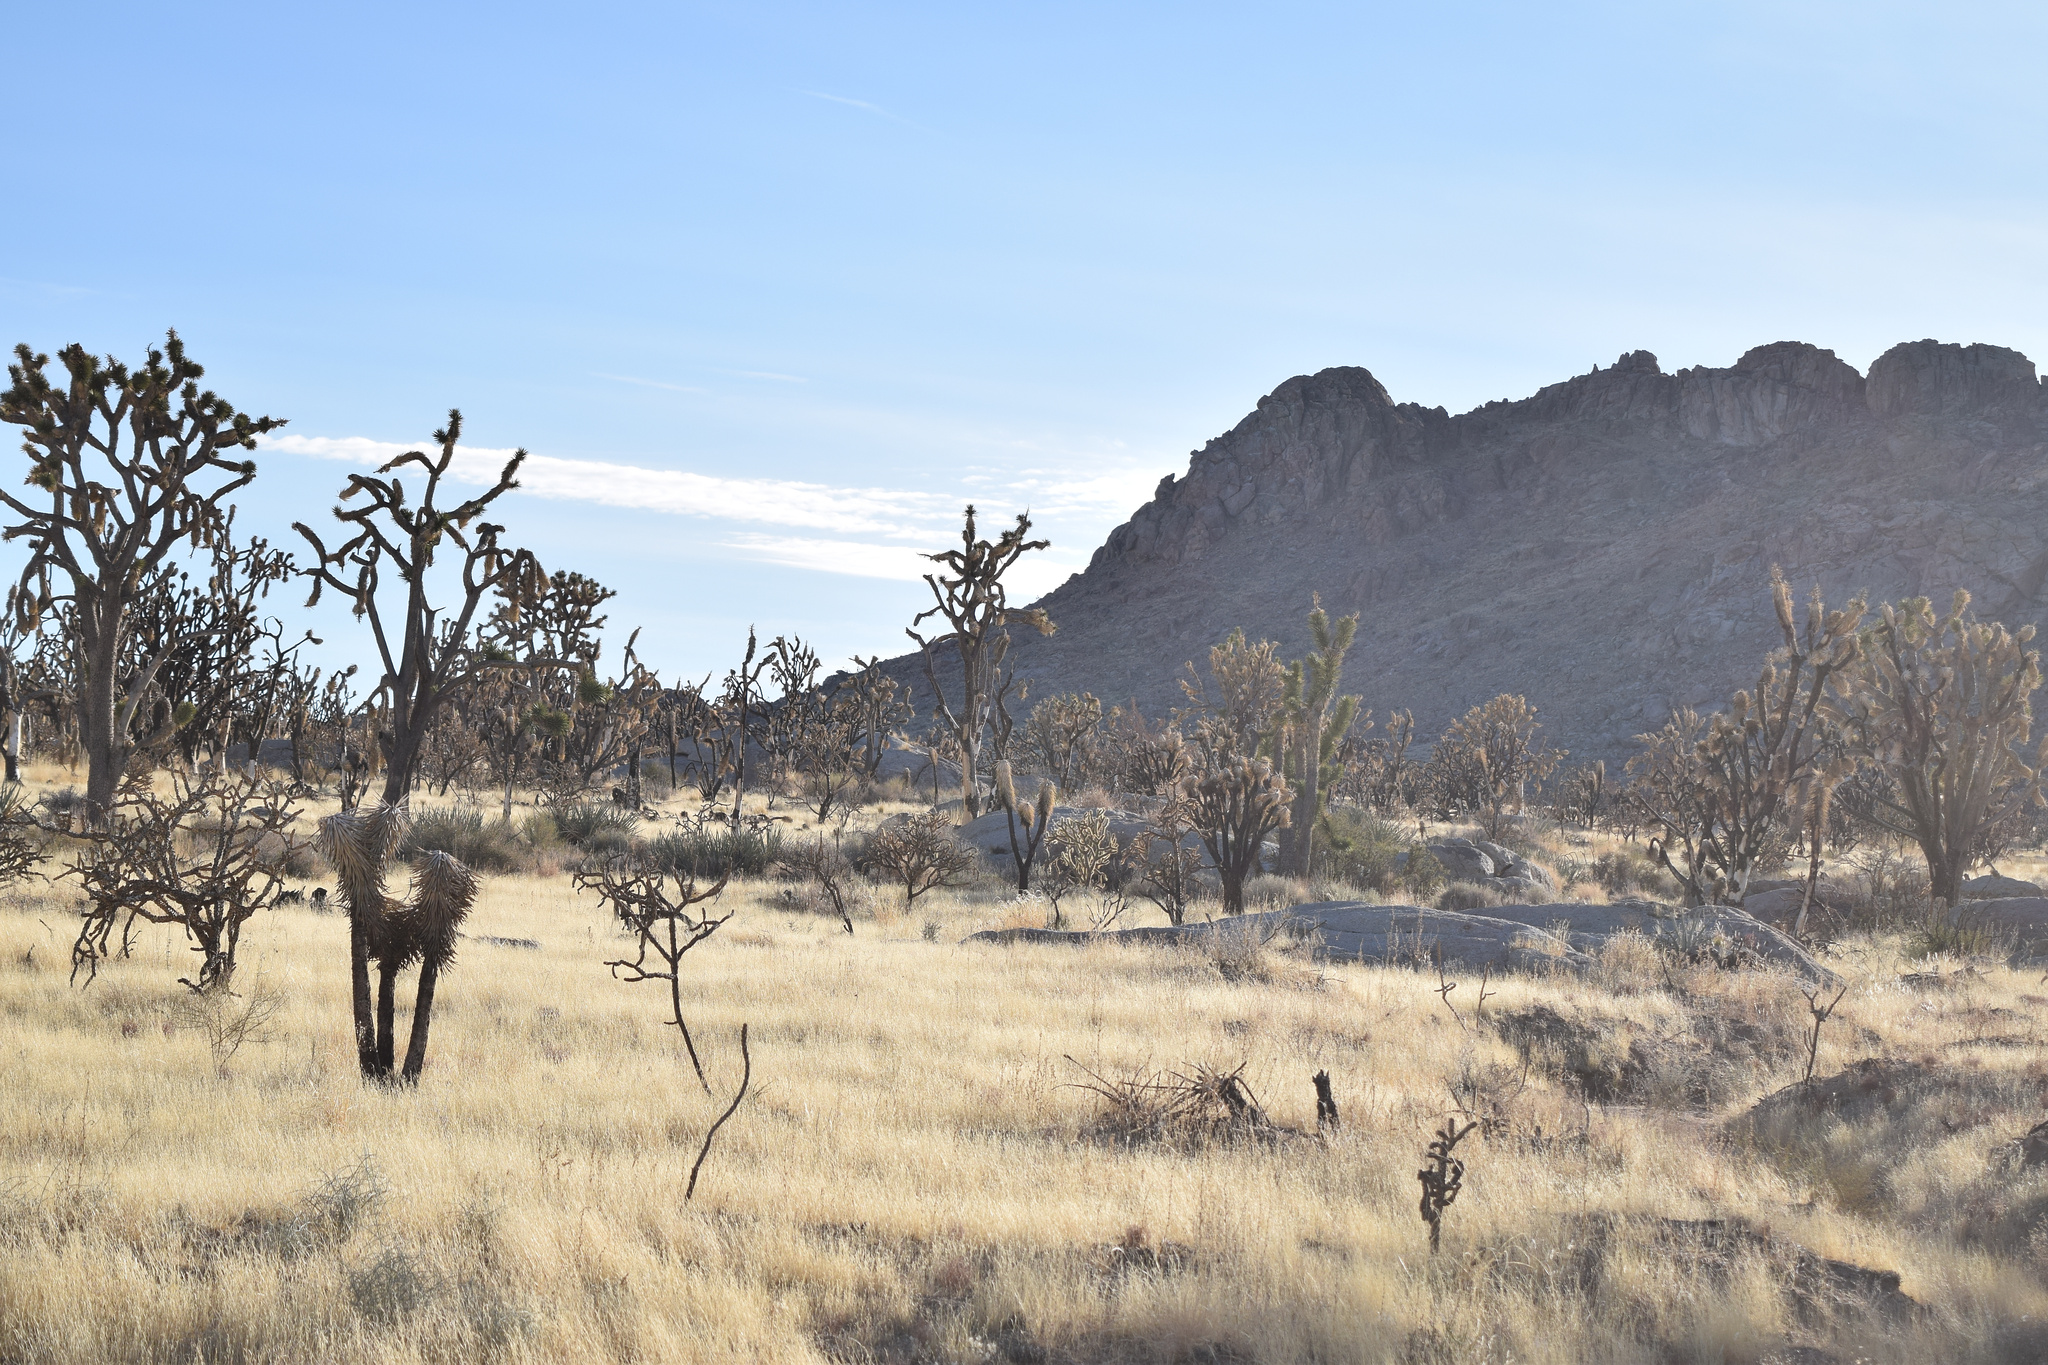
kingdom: Plantae
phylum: Tracheophyta
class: Liliopsida
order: Asparagales
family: Asparagaceae
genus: Yucca
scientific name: Yucca brevifolia
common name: Joshua tree
